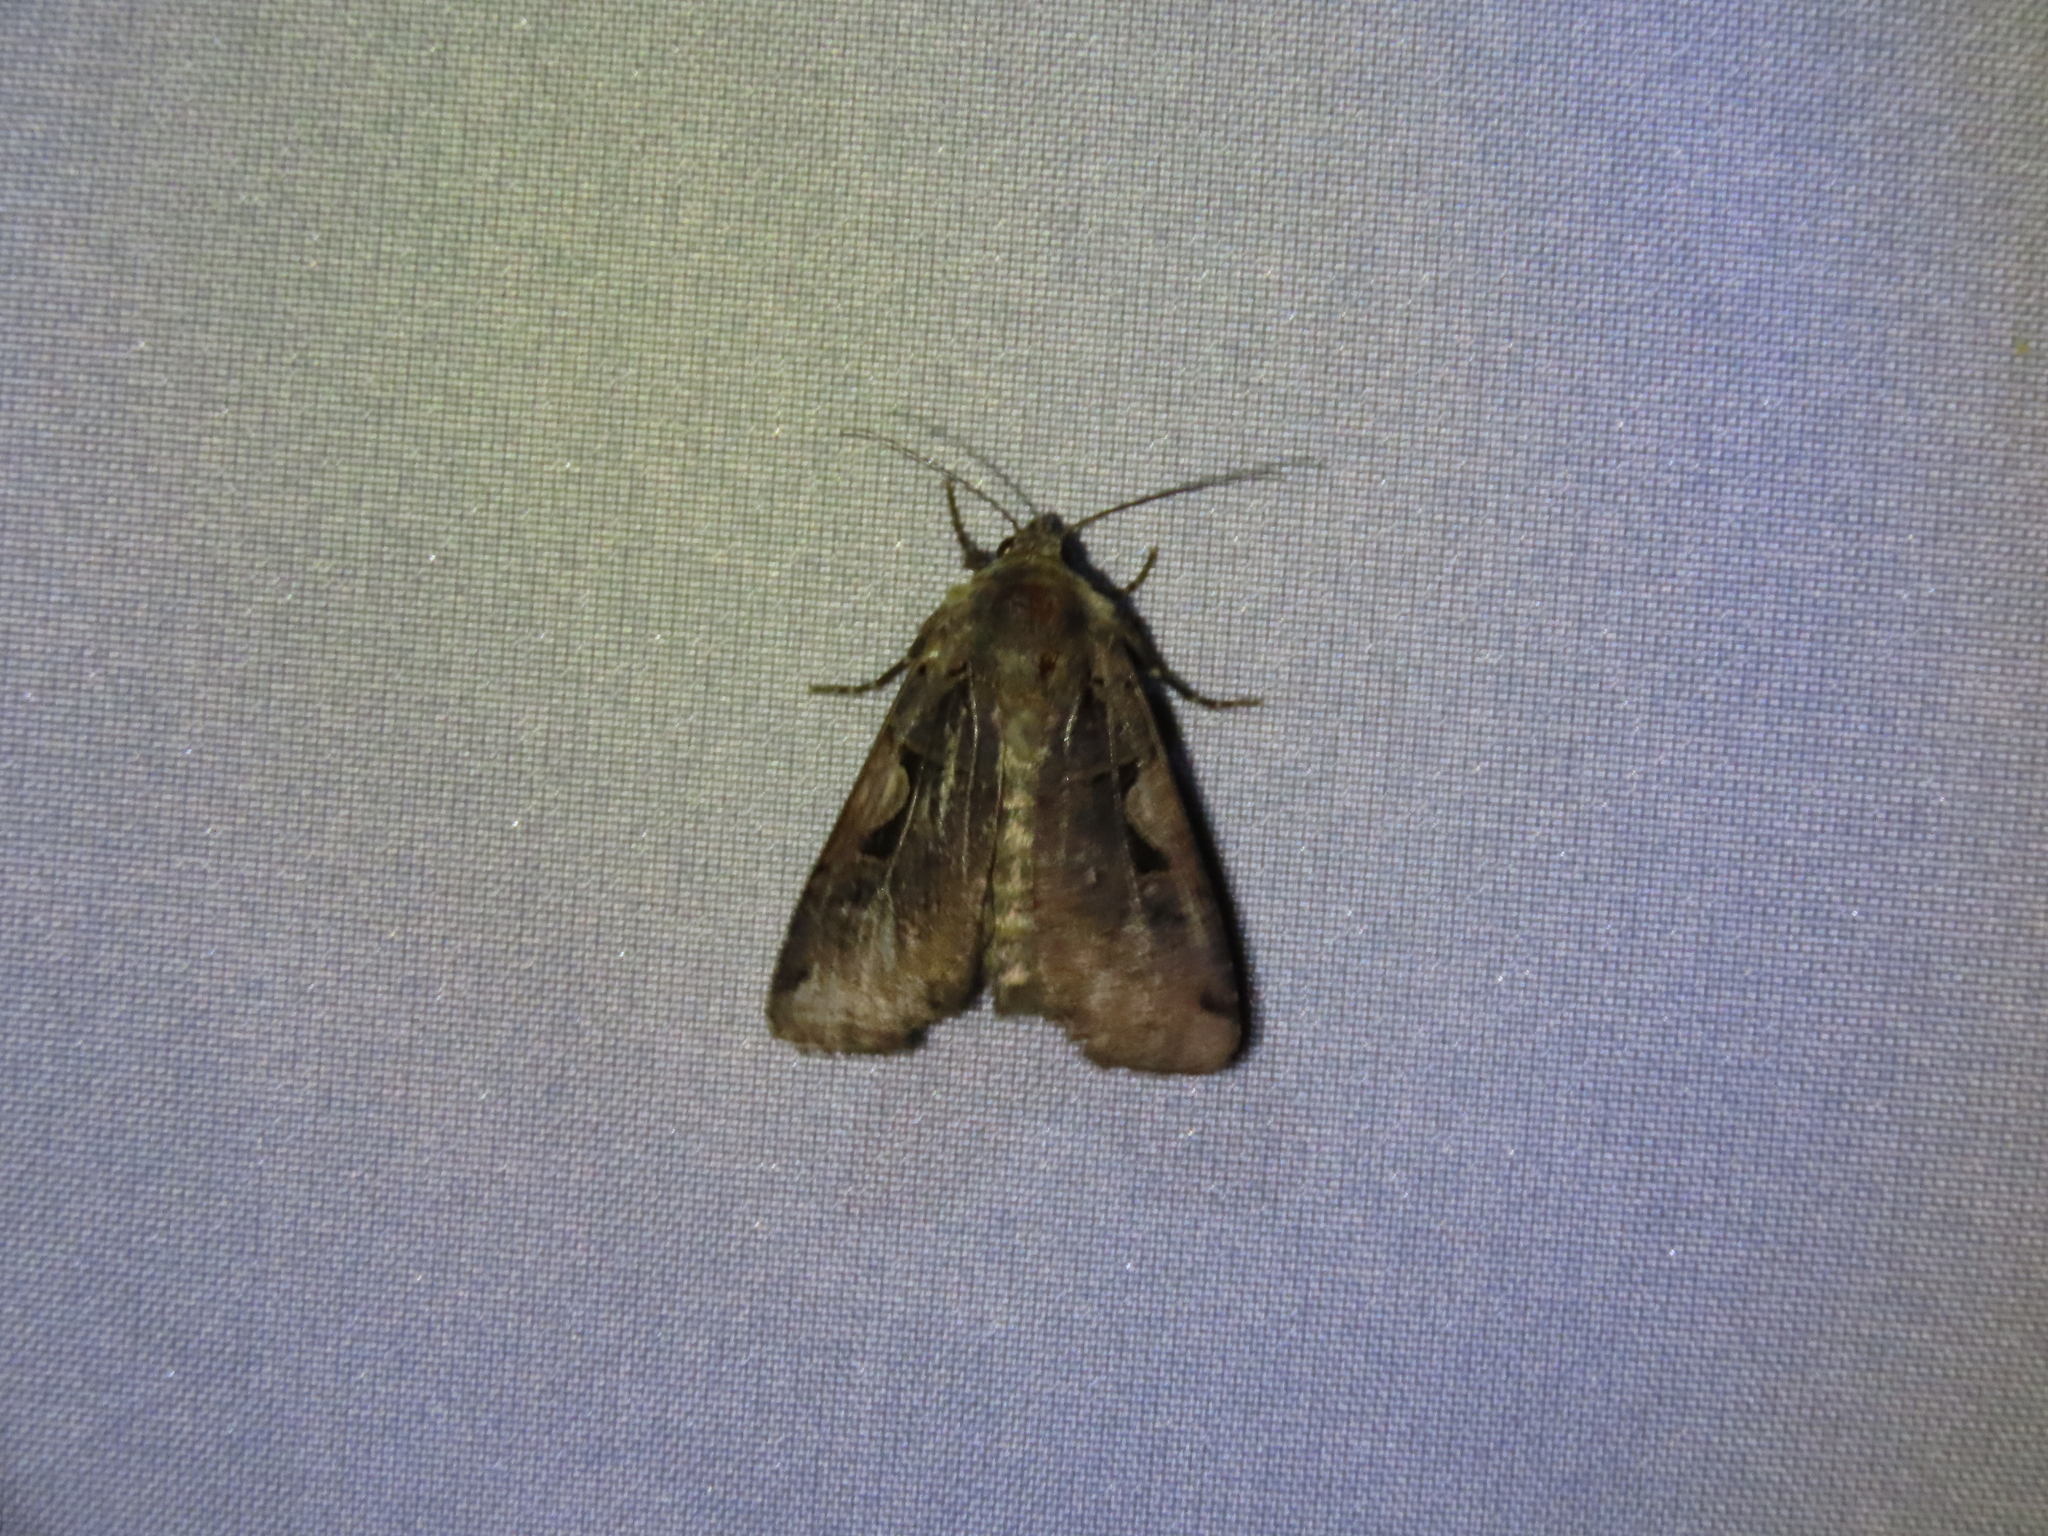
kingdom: Animalia
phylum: Arthropoda
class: Insecta
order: Lepidoptera
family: Noctuidae
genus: Xestia
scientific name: Xestia c-nigrum
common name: Setaceous hebrew character
